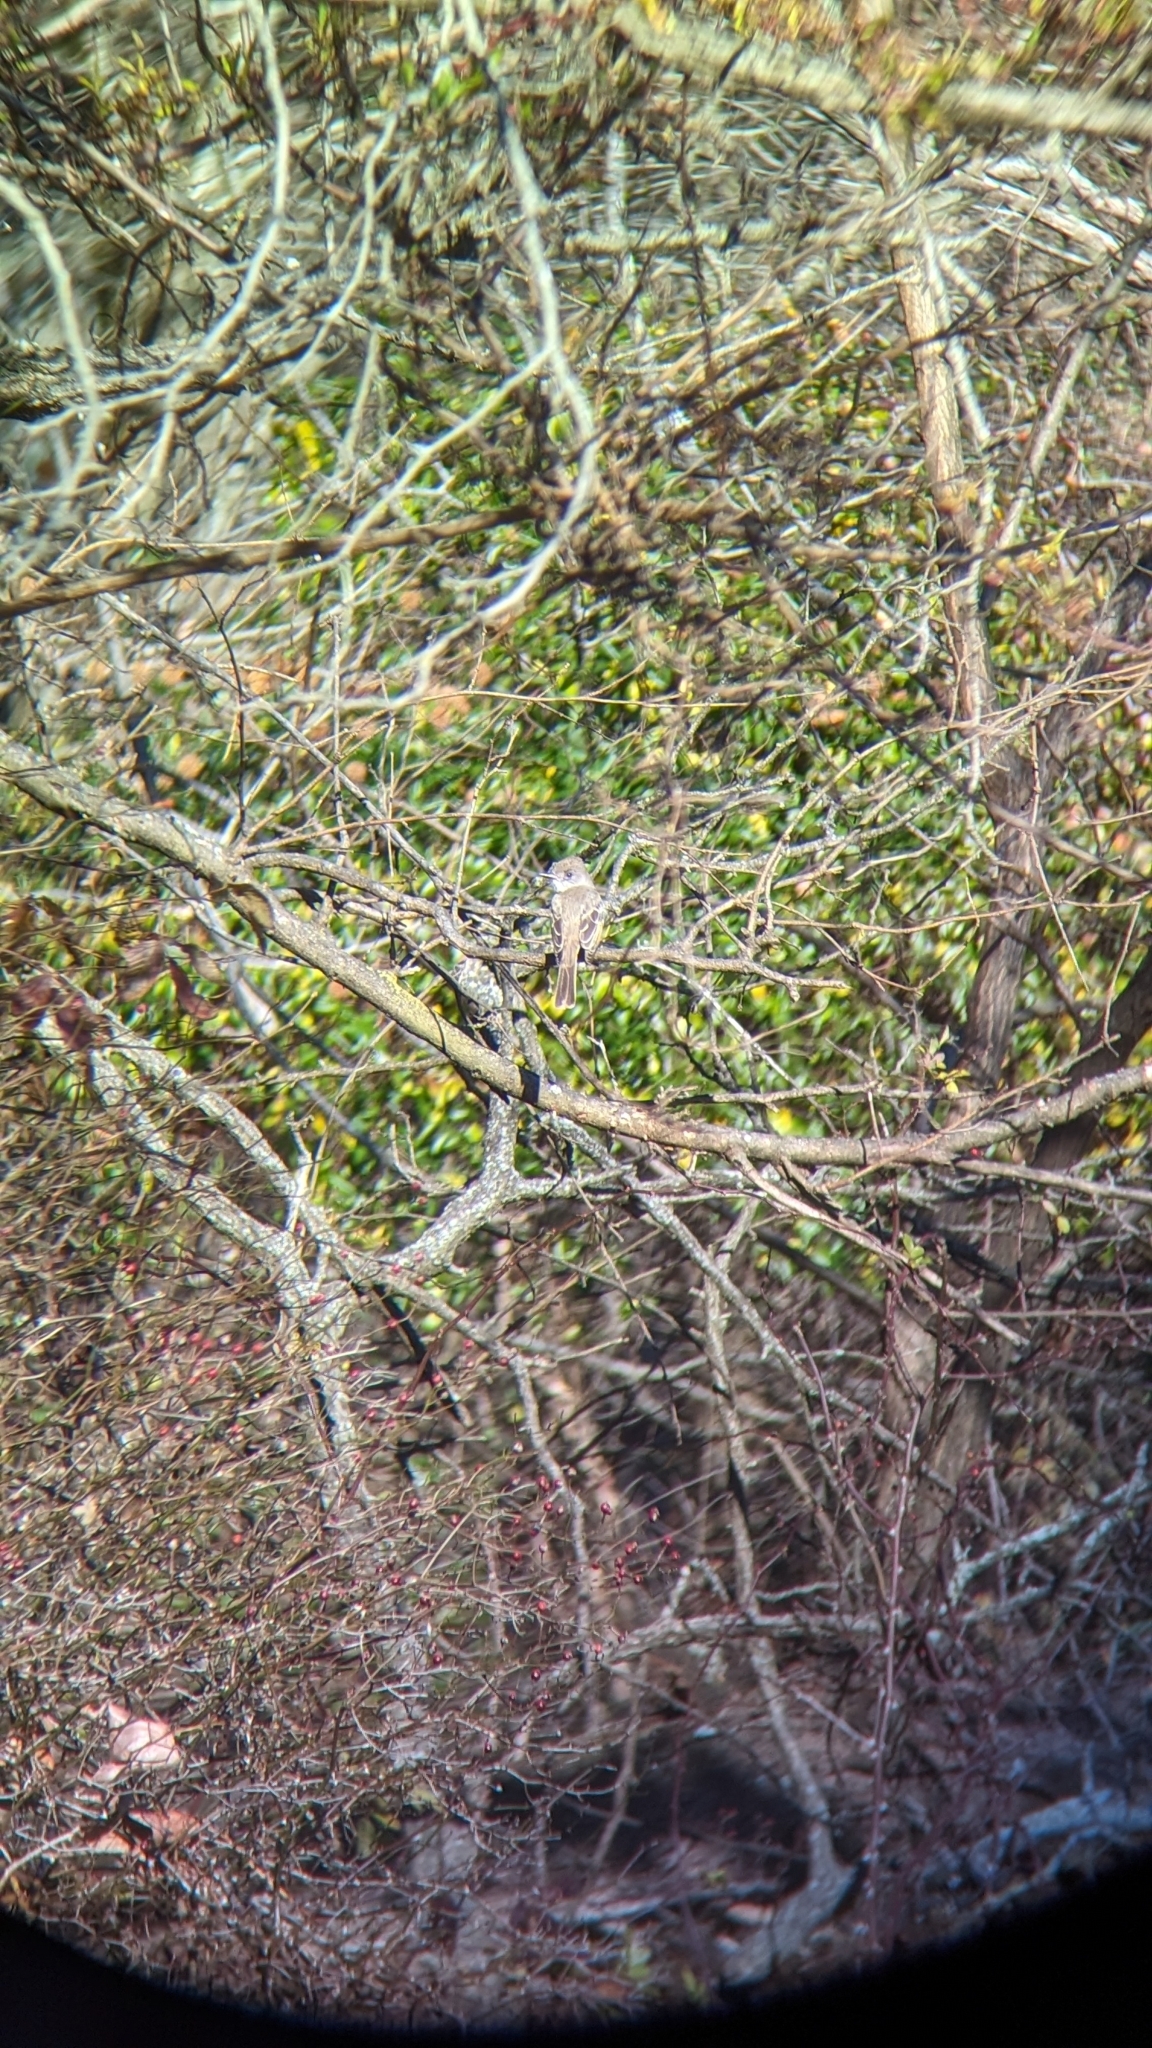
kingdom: Animalia
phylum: Chordata
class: Aves
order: Passeriformes
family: Tyrannidae
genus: Myiarchus
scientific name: Myiarchus cinerascens
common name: Ash-throated flycatcher
